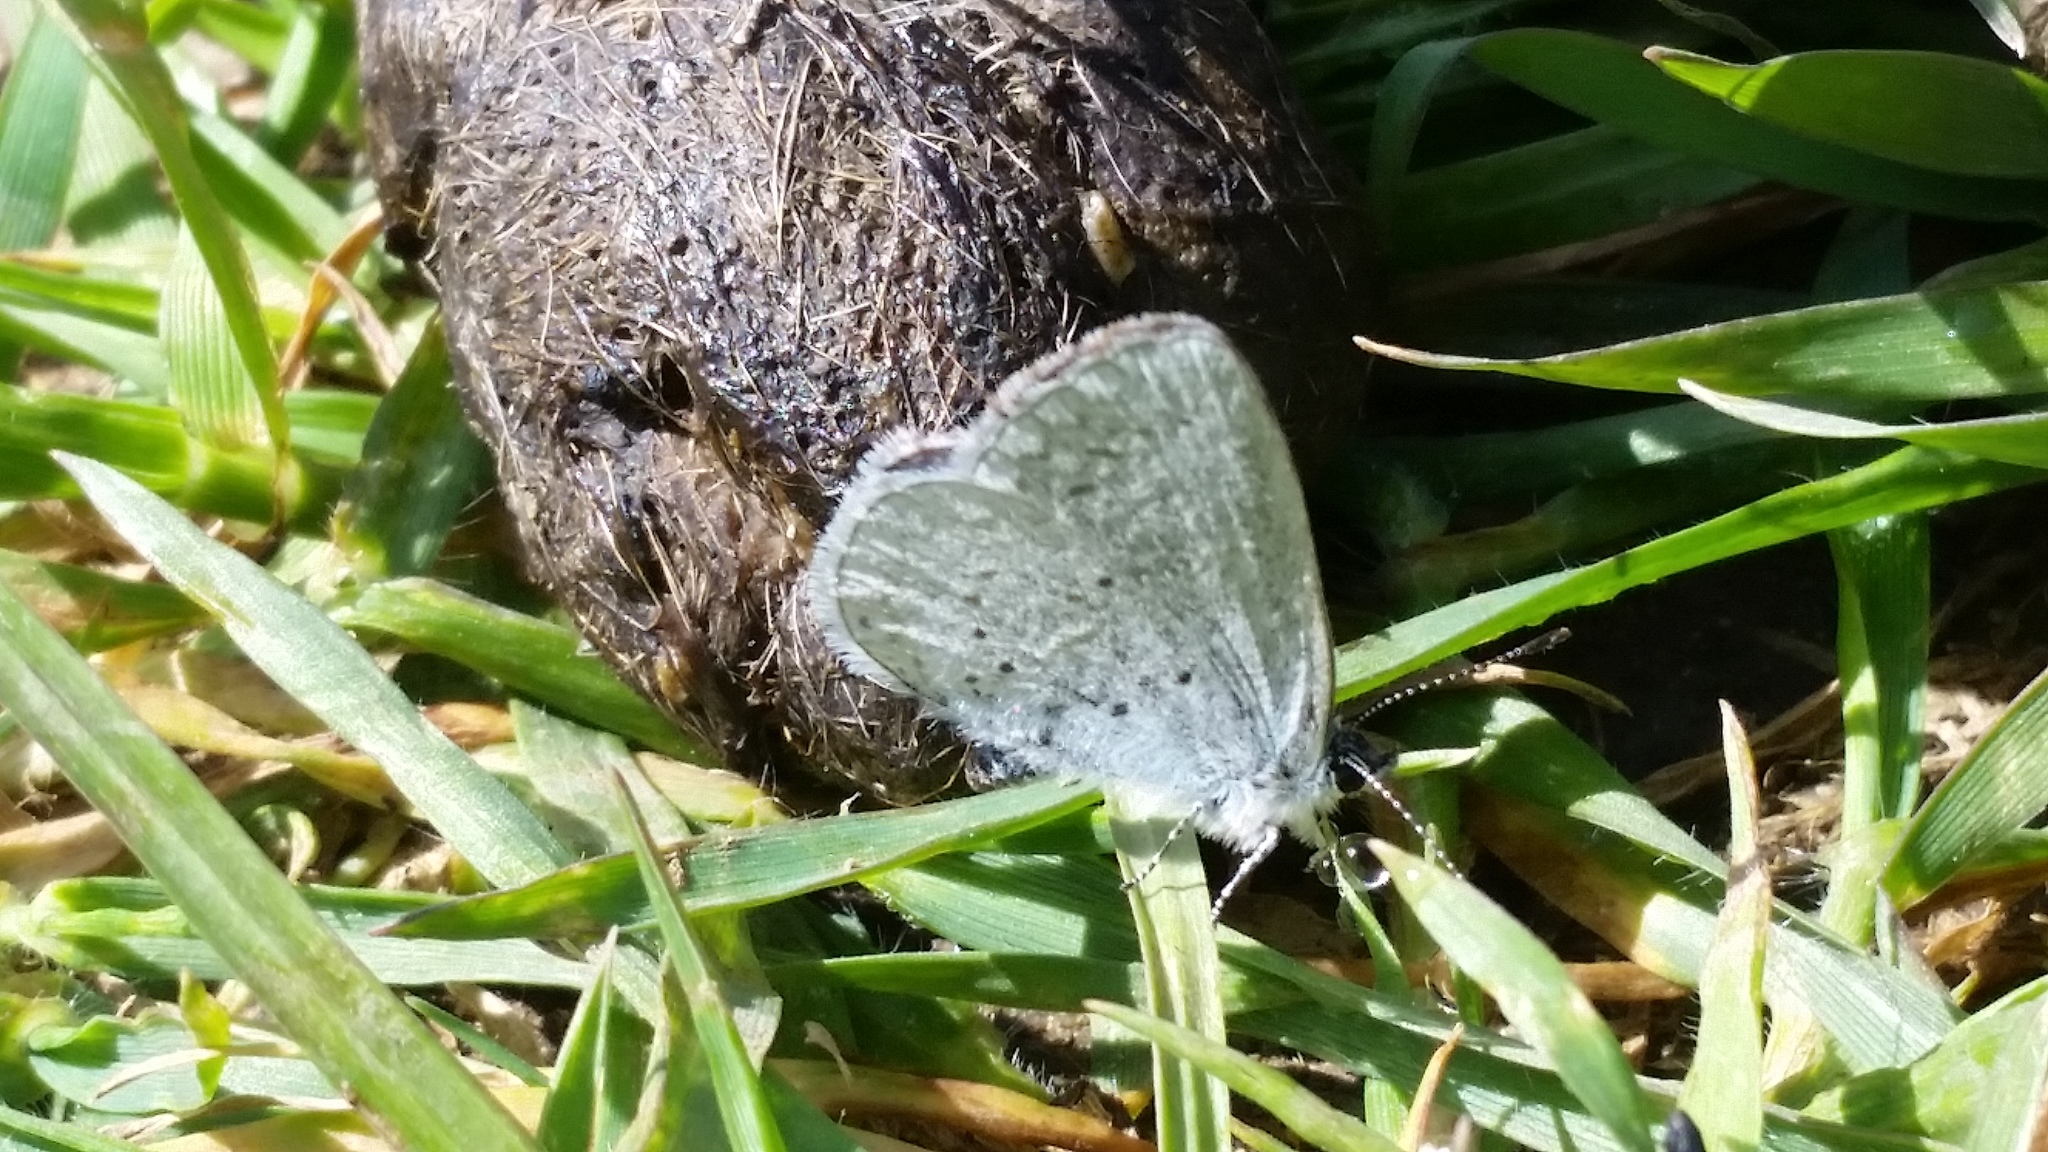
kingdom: Animalia
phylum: Arthropoda
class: Insecta
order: Lepidoptera
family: Lycaenidae
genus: Celastrina
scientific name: Celastrina ladon
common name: Spring azure
